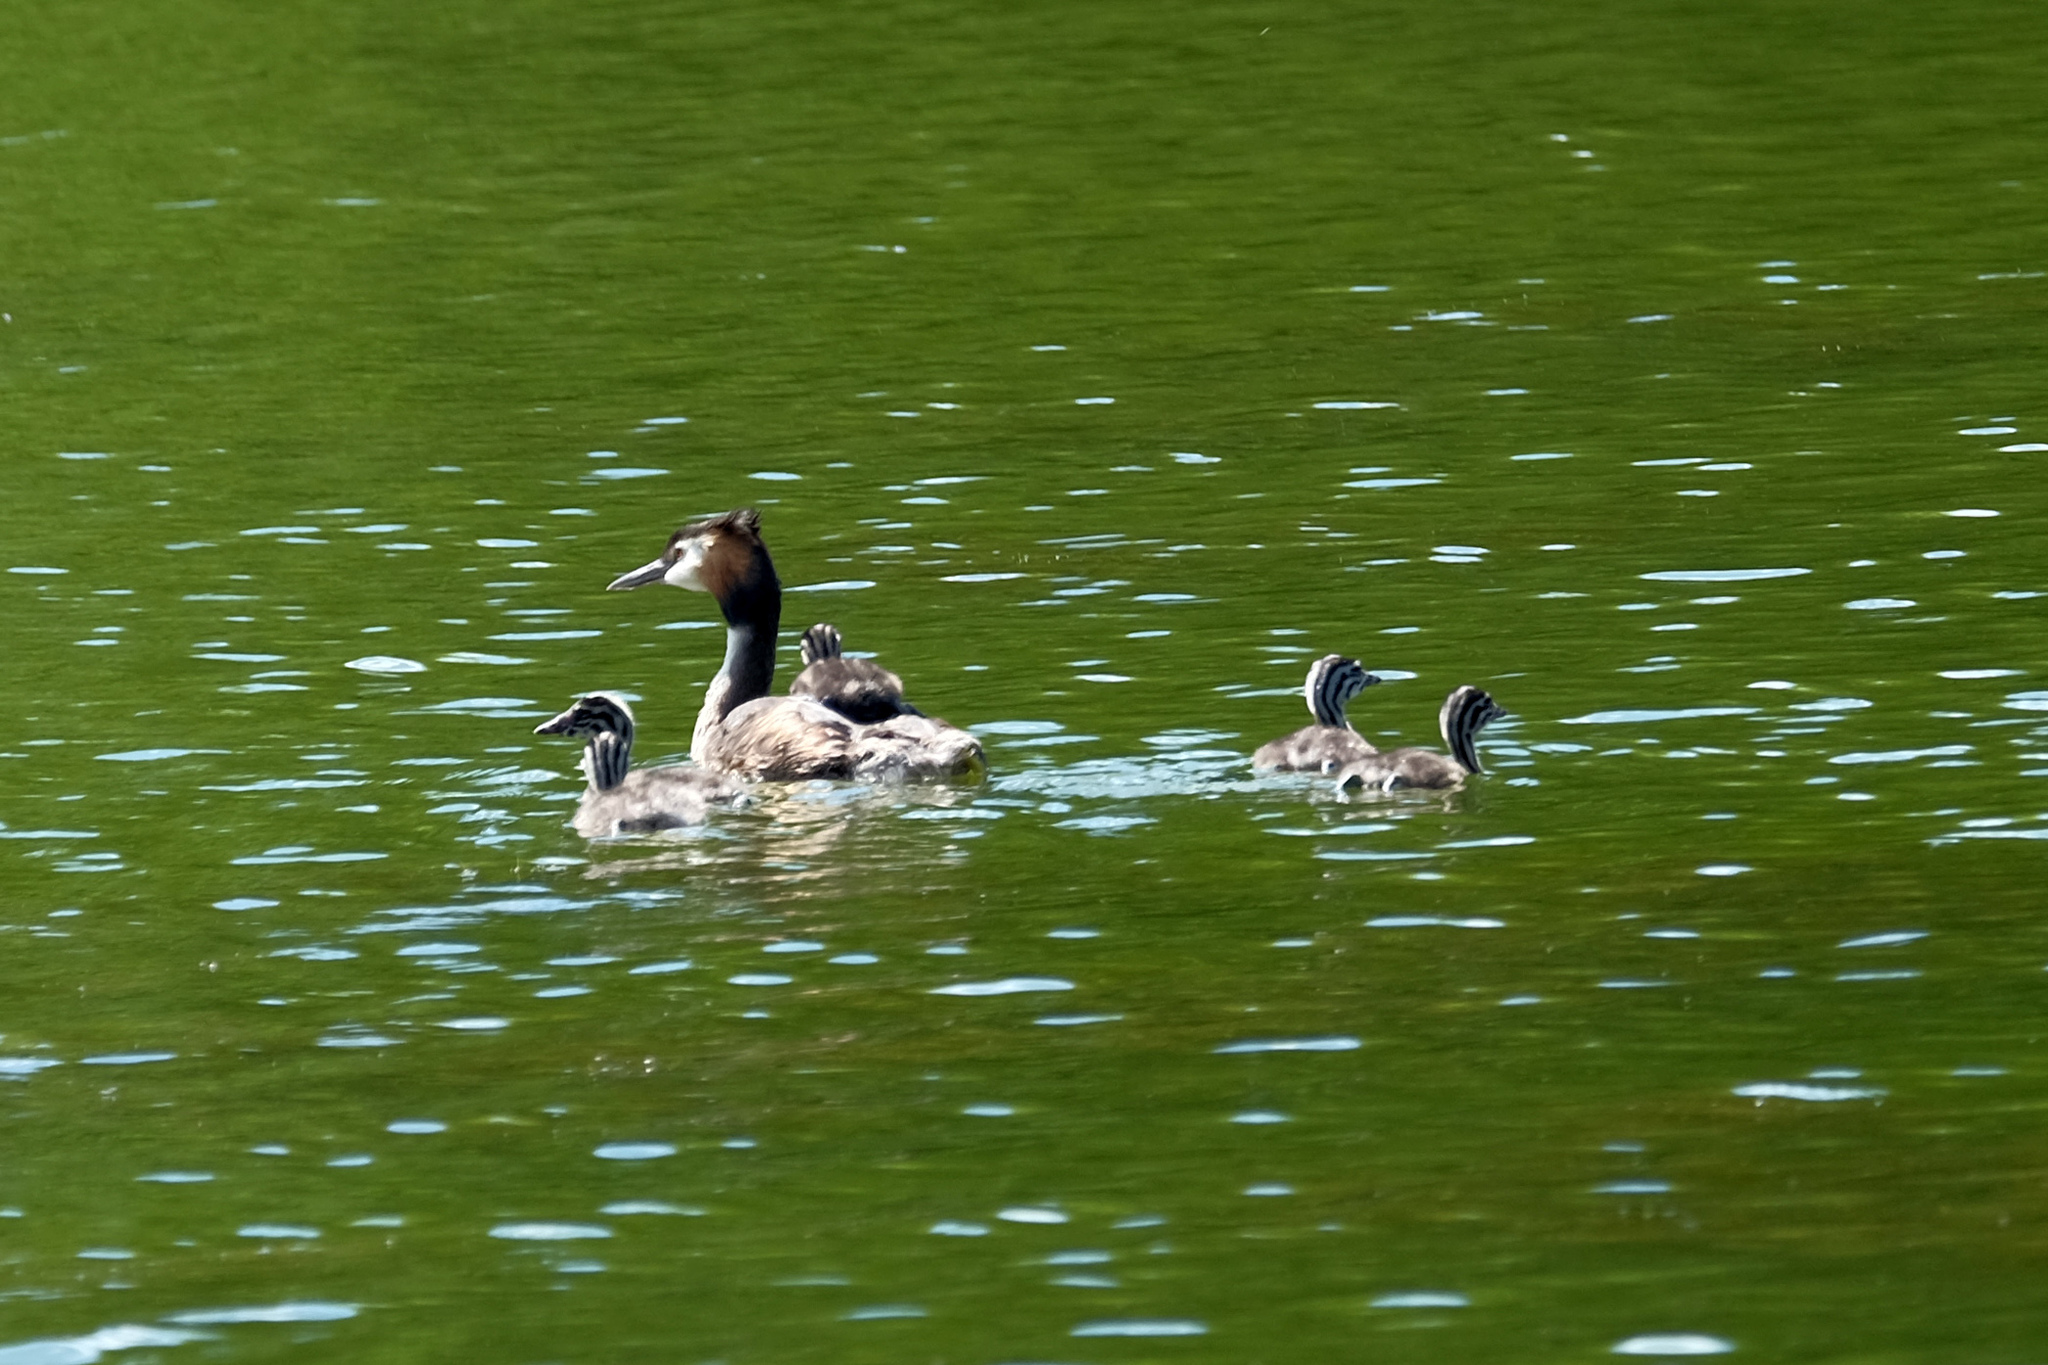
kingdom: Animalia
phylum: Chordata
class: Aves
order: Podicipediformes
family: Podicipedidae
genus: Podiceps
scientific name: Podiceps cristatus
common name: Great crested grebe
